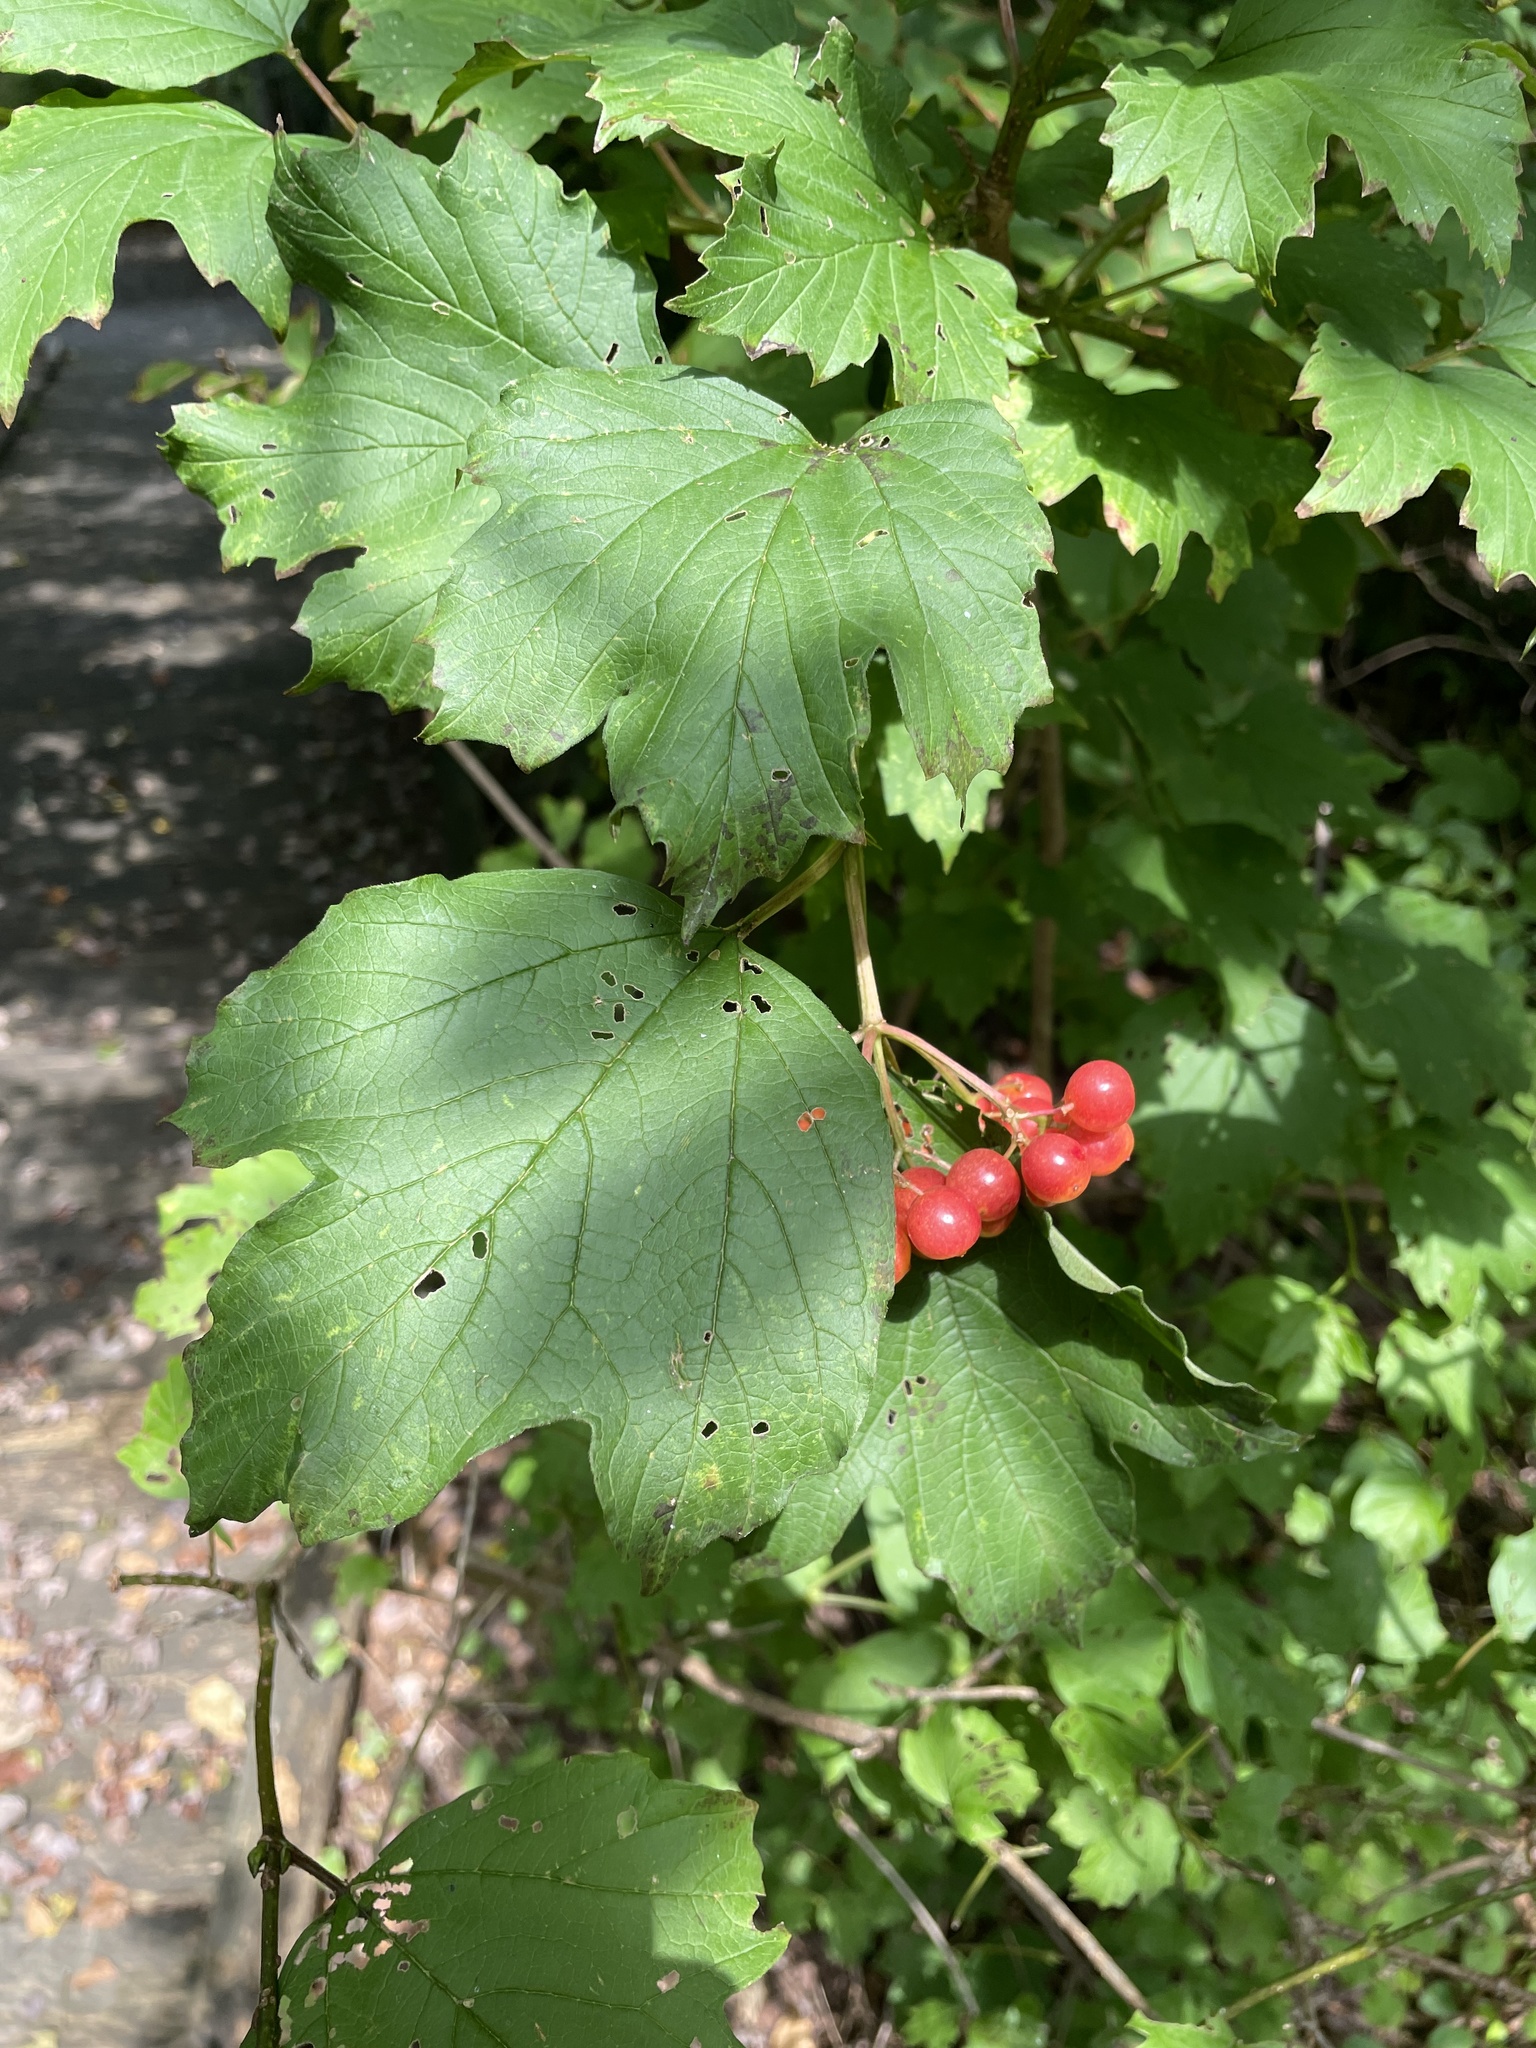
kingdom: Plantae
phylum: Tracheophyta
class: Magnoliopsida
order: Dipsacales
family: Viburnaceae
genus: Viburnum
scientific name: Viburnum acerifolium
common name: Dockmackie
